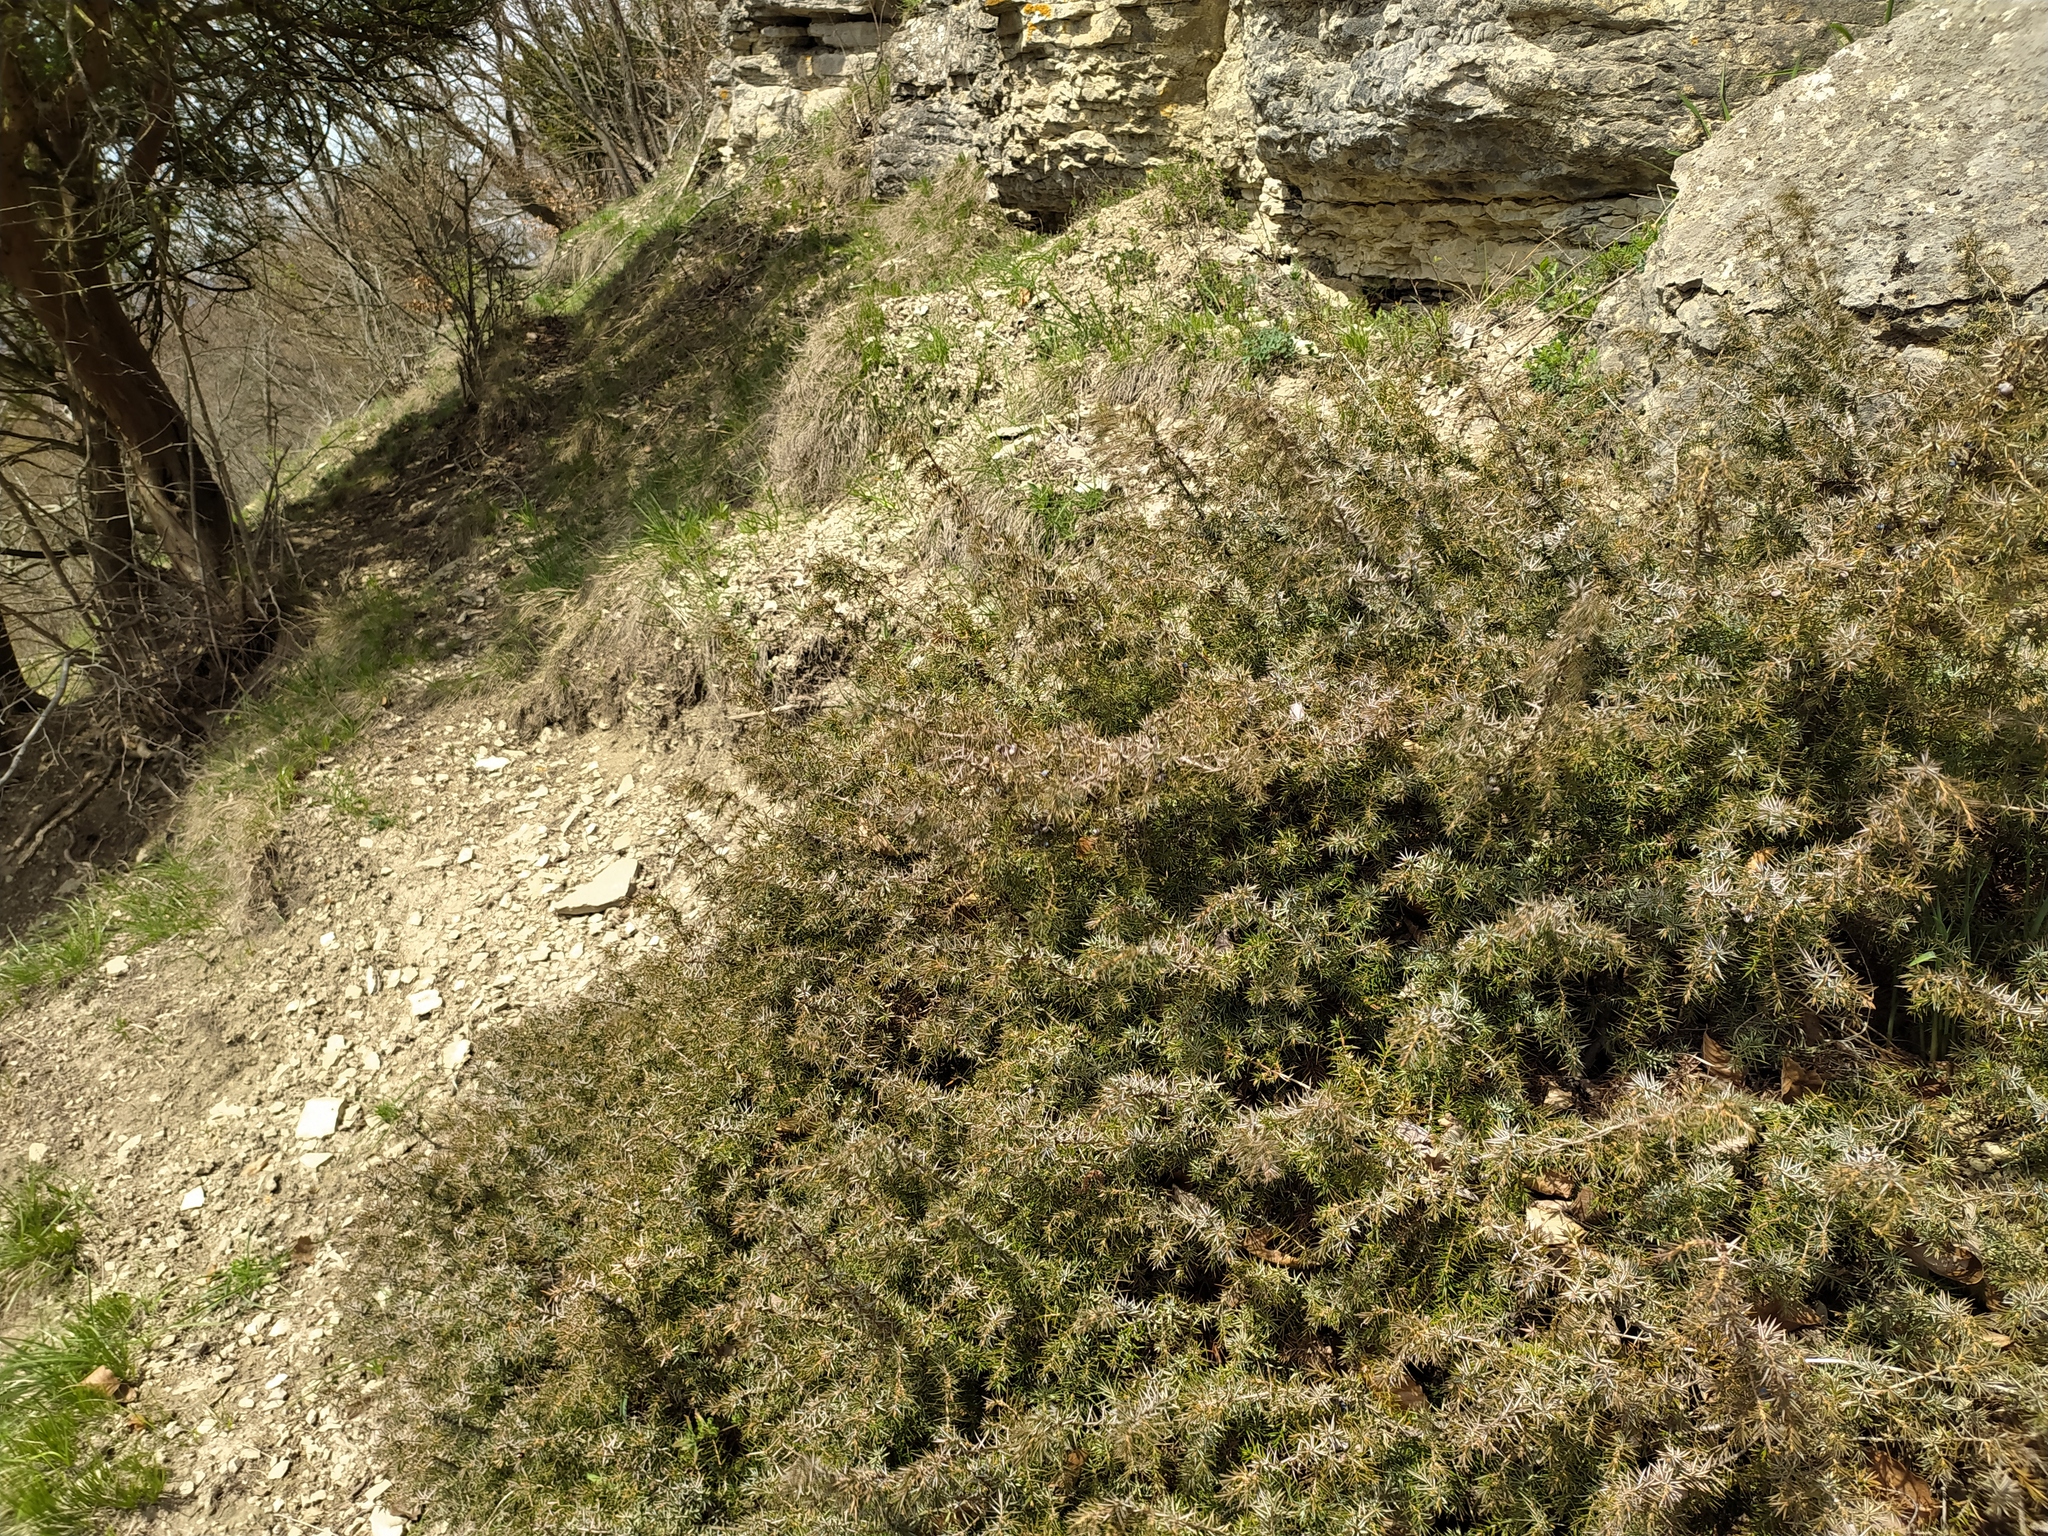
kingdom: Plantae
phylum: Tracheophyta
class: Pinopsida
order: Pinales
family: Cupressaceae
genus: Juniperus
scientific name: Juniperus communis
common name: Common juniper
